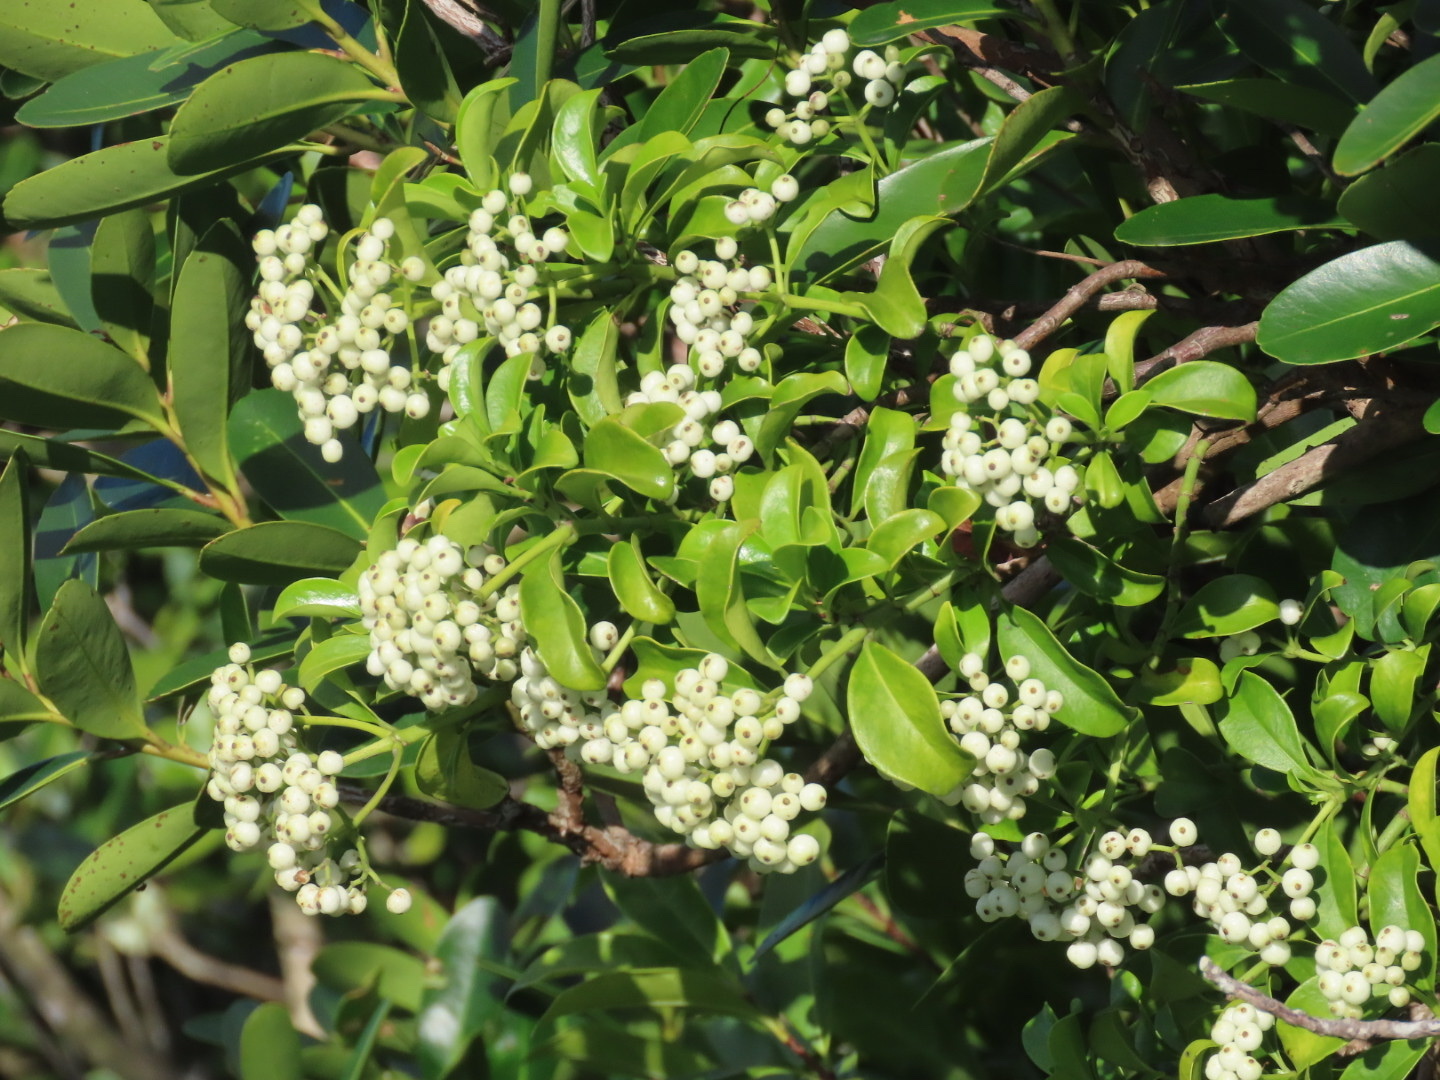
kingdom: Plantae
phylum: Tracheophyta
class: Magnoliopsida
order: Gentianales
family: Rubiaceae
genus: Psychotria
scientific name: Psychotria serpens
